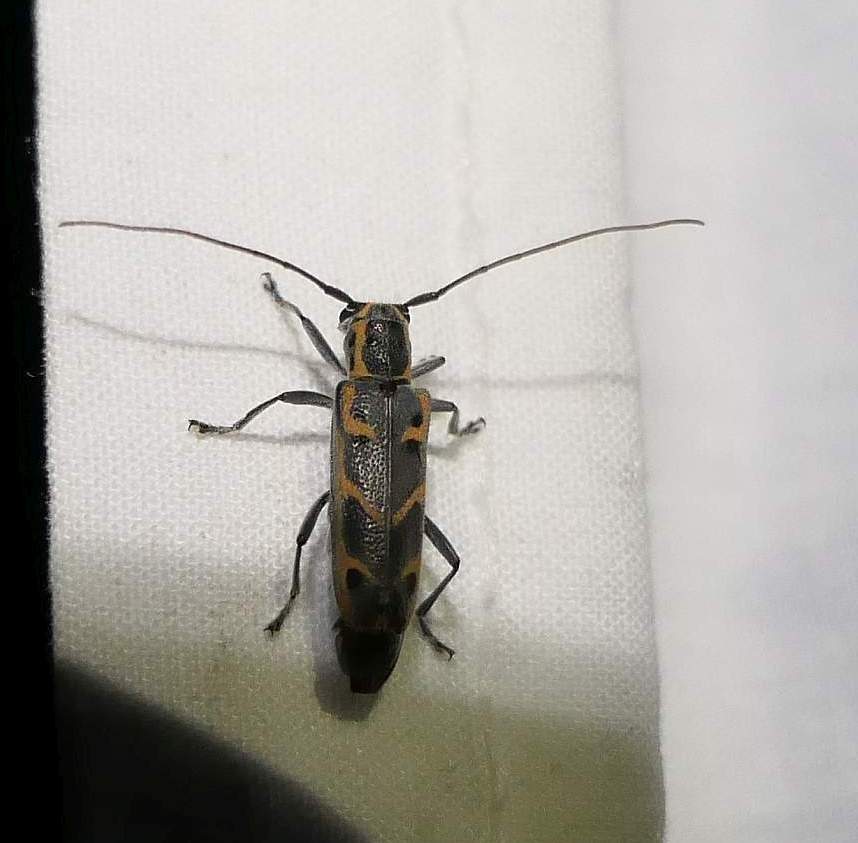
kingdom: Animalia
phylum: Arthropoda
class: Insecta
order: Coleoptera
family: Cerambycidae
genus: Saperda
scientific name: Saperda tridentata
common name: Elm borer
